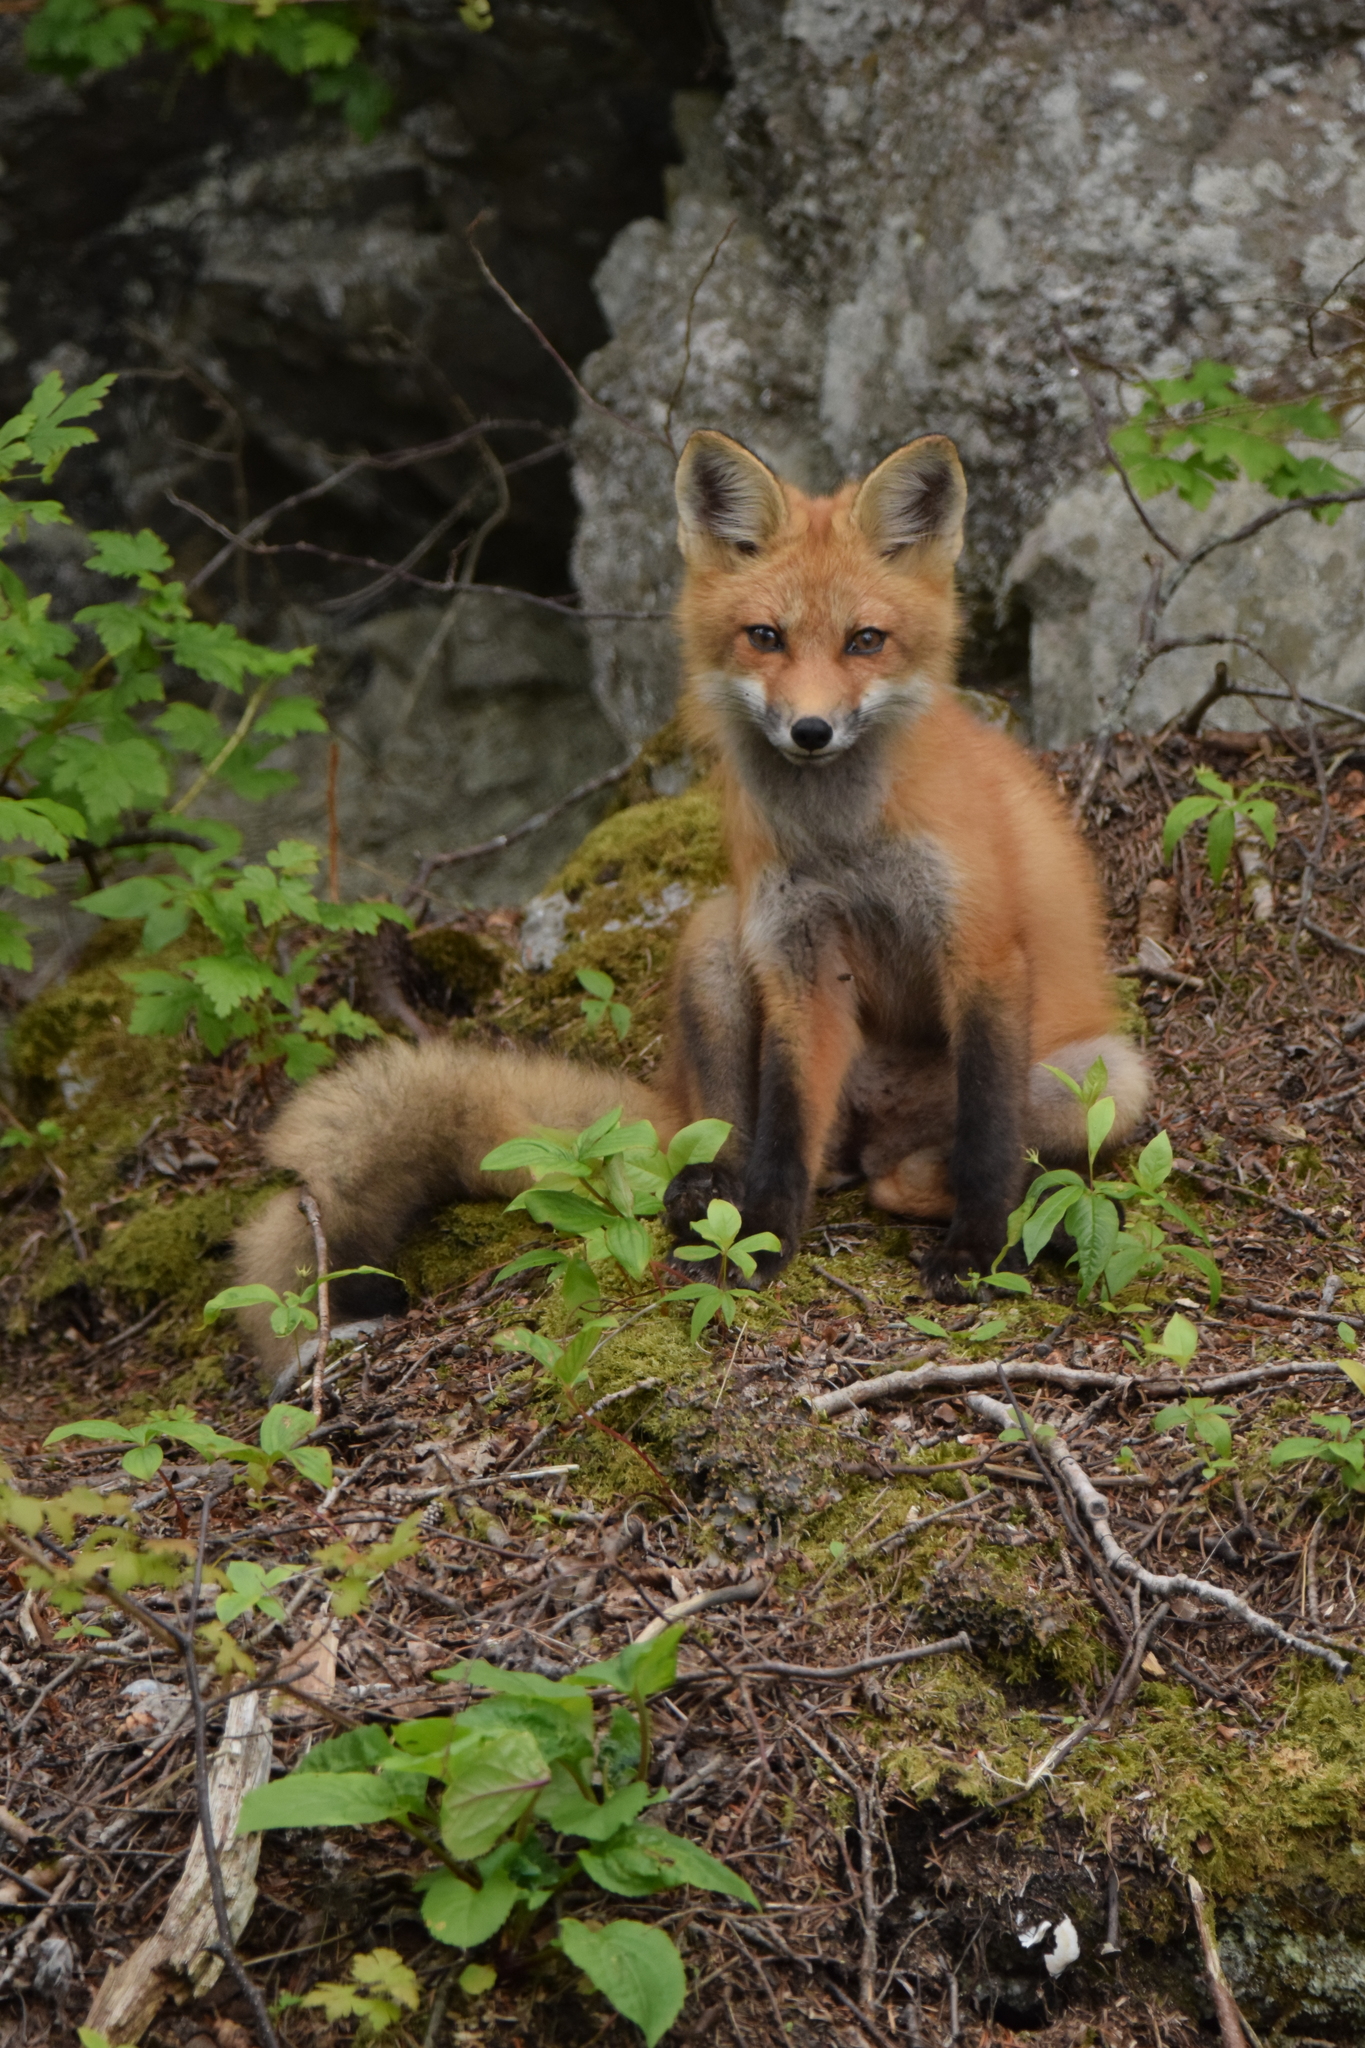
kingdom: Animalia
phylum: Chordata
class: Mammalia
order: Carnivora
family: Canidae
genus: Vulpes
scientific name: Vulpes vulpes
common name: Red fox
